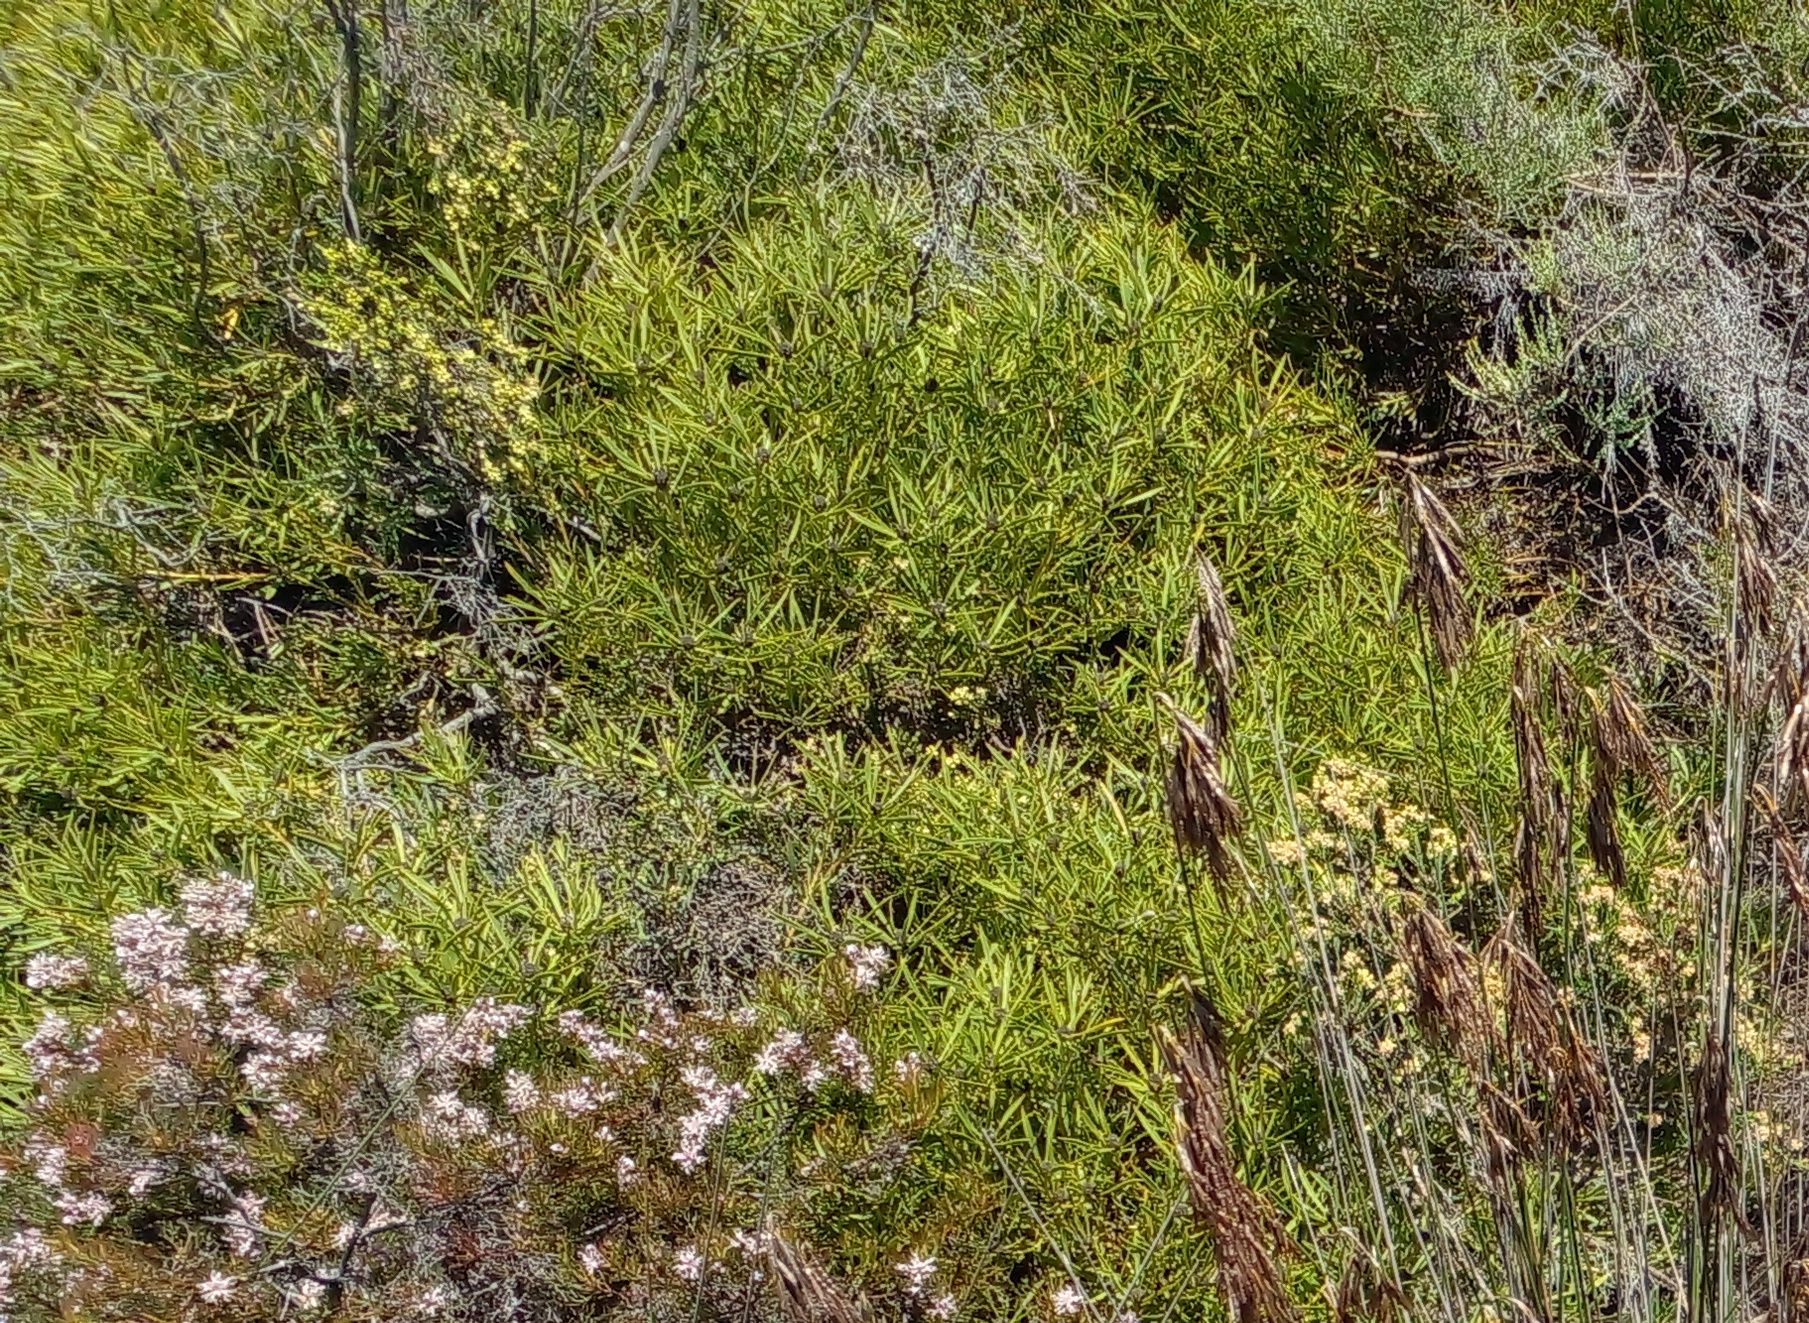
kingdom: Plantae
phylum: Tracheophyta
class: Magnoliopsida
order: Proteales
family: Proteaceae
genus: Leucadendron
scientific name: Leucadendron salignum
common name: Common sunshine conebush
